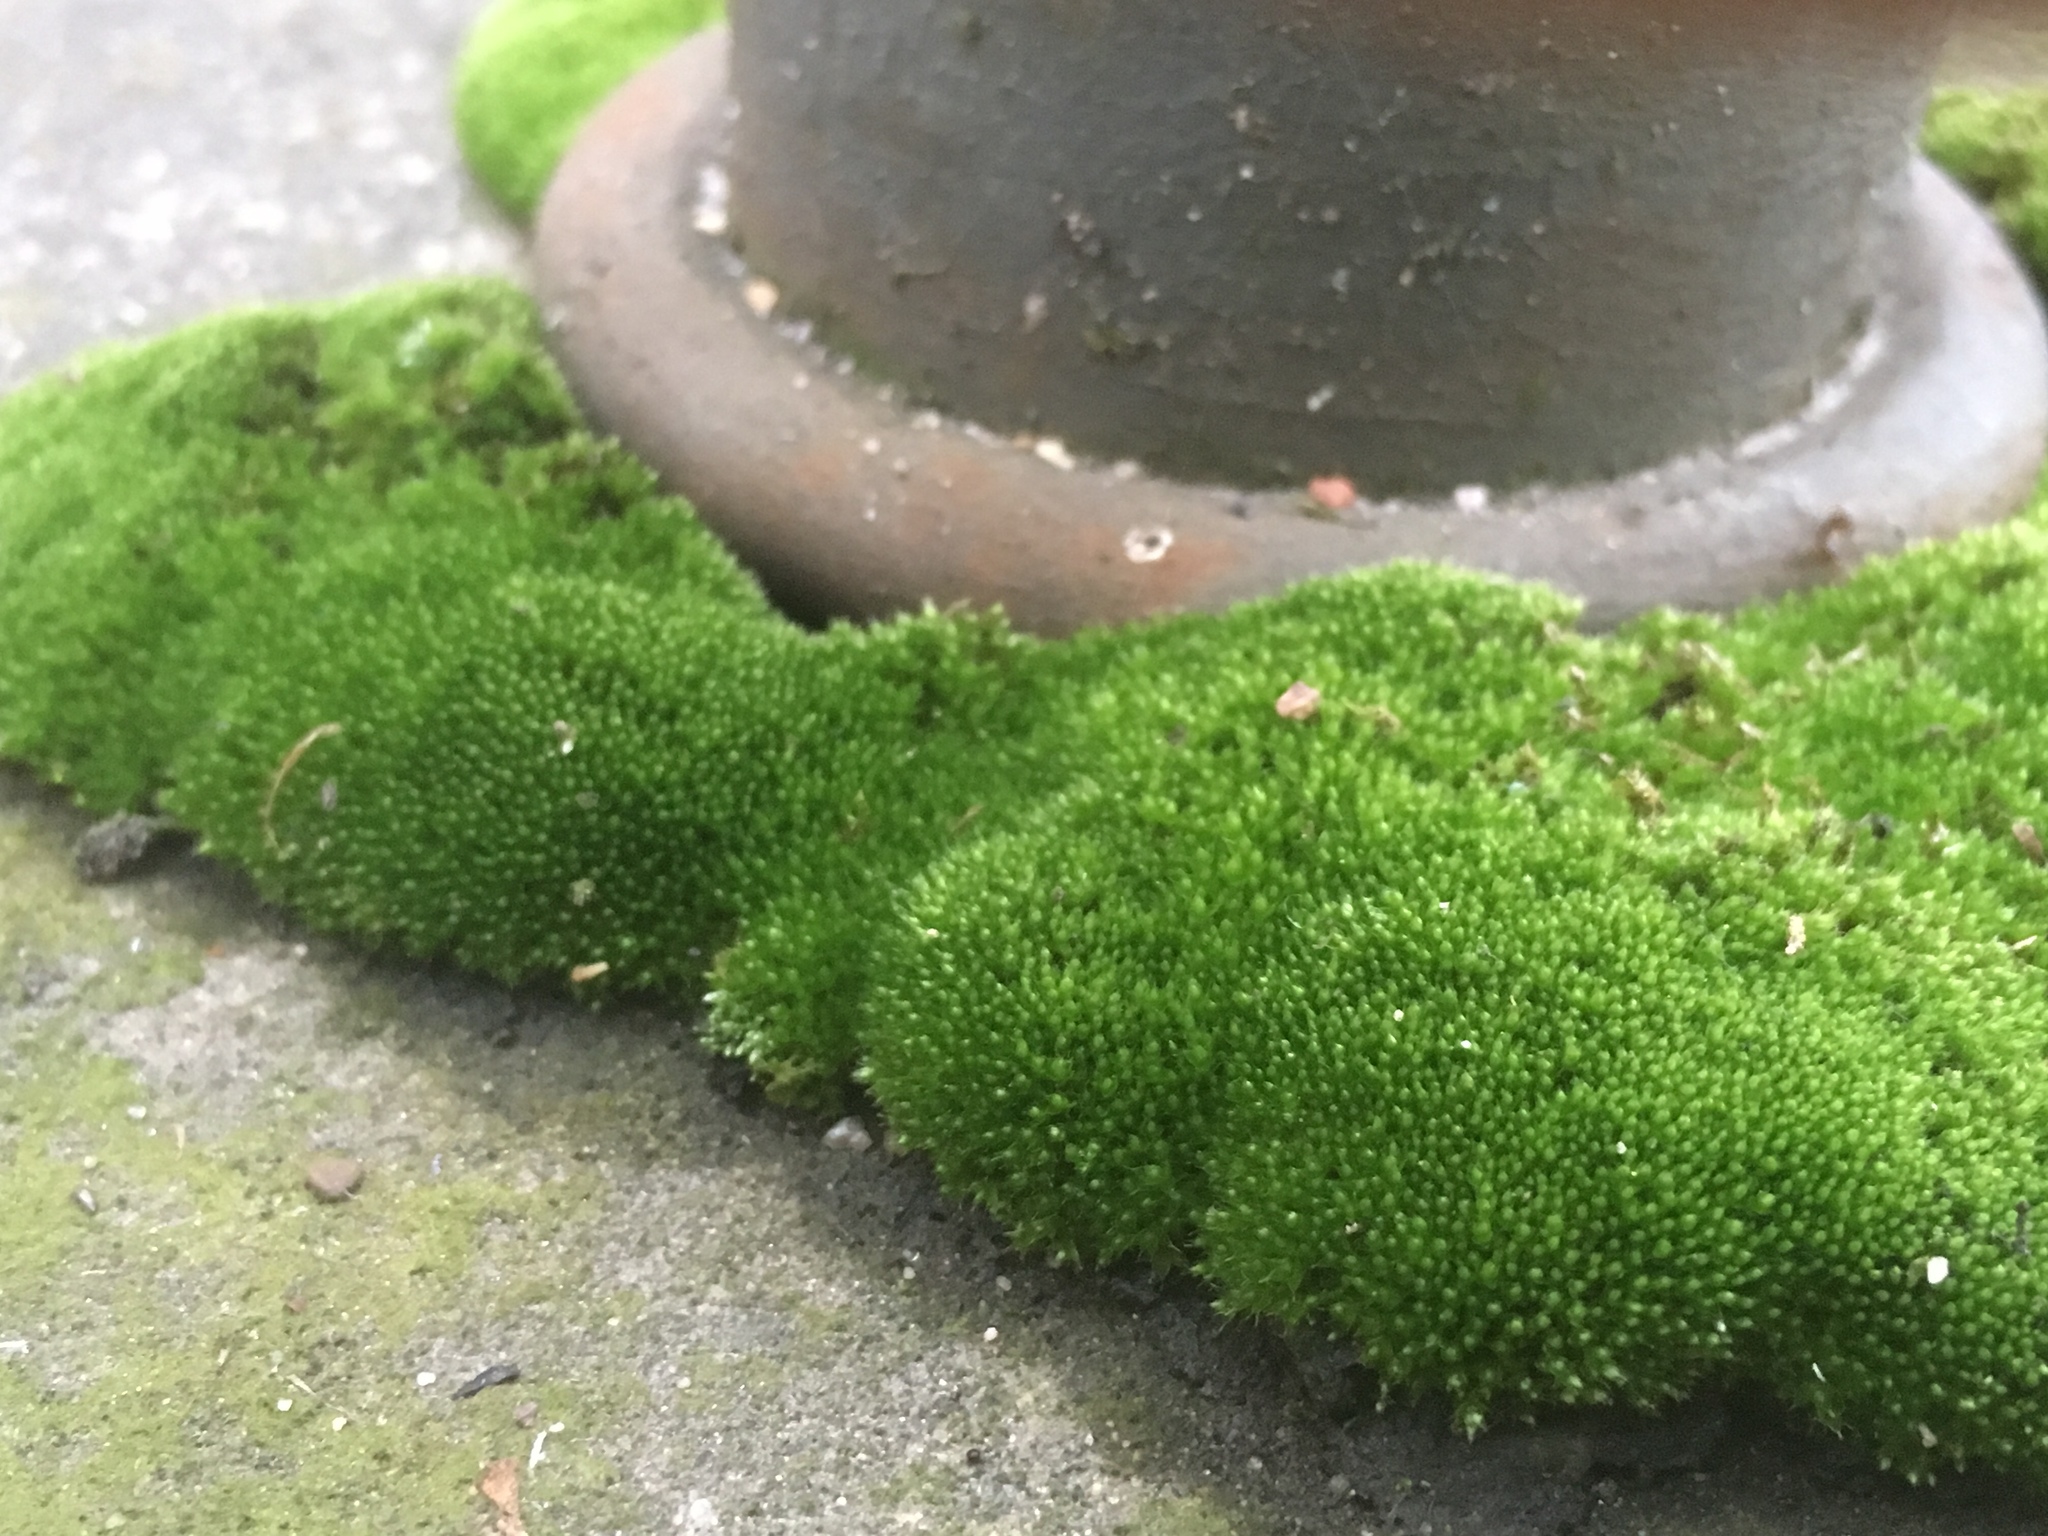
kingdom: Plantae
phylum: Bryophyta
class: Bryopsida
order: Bryales
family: Bryaceae
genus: Bryum
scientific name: Bryum argenteum
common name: Silver-moss
